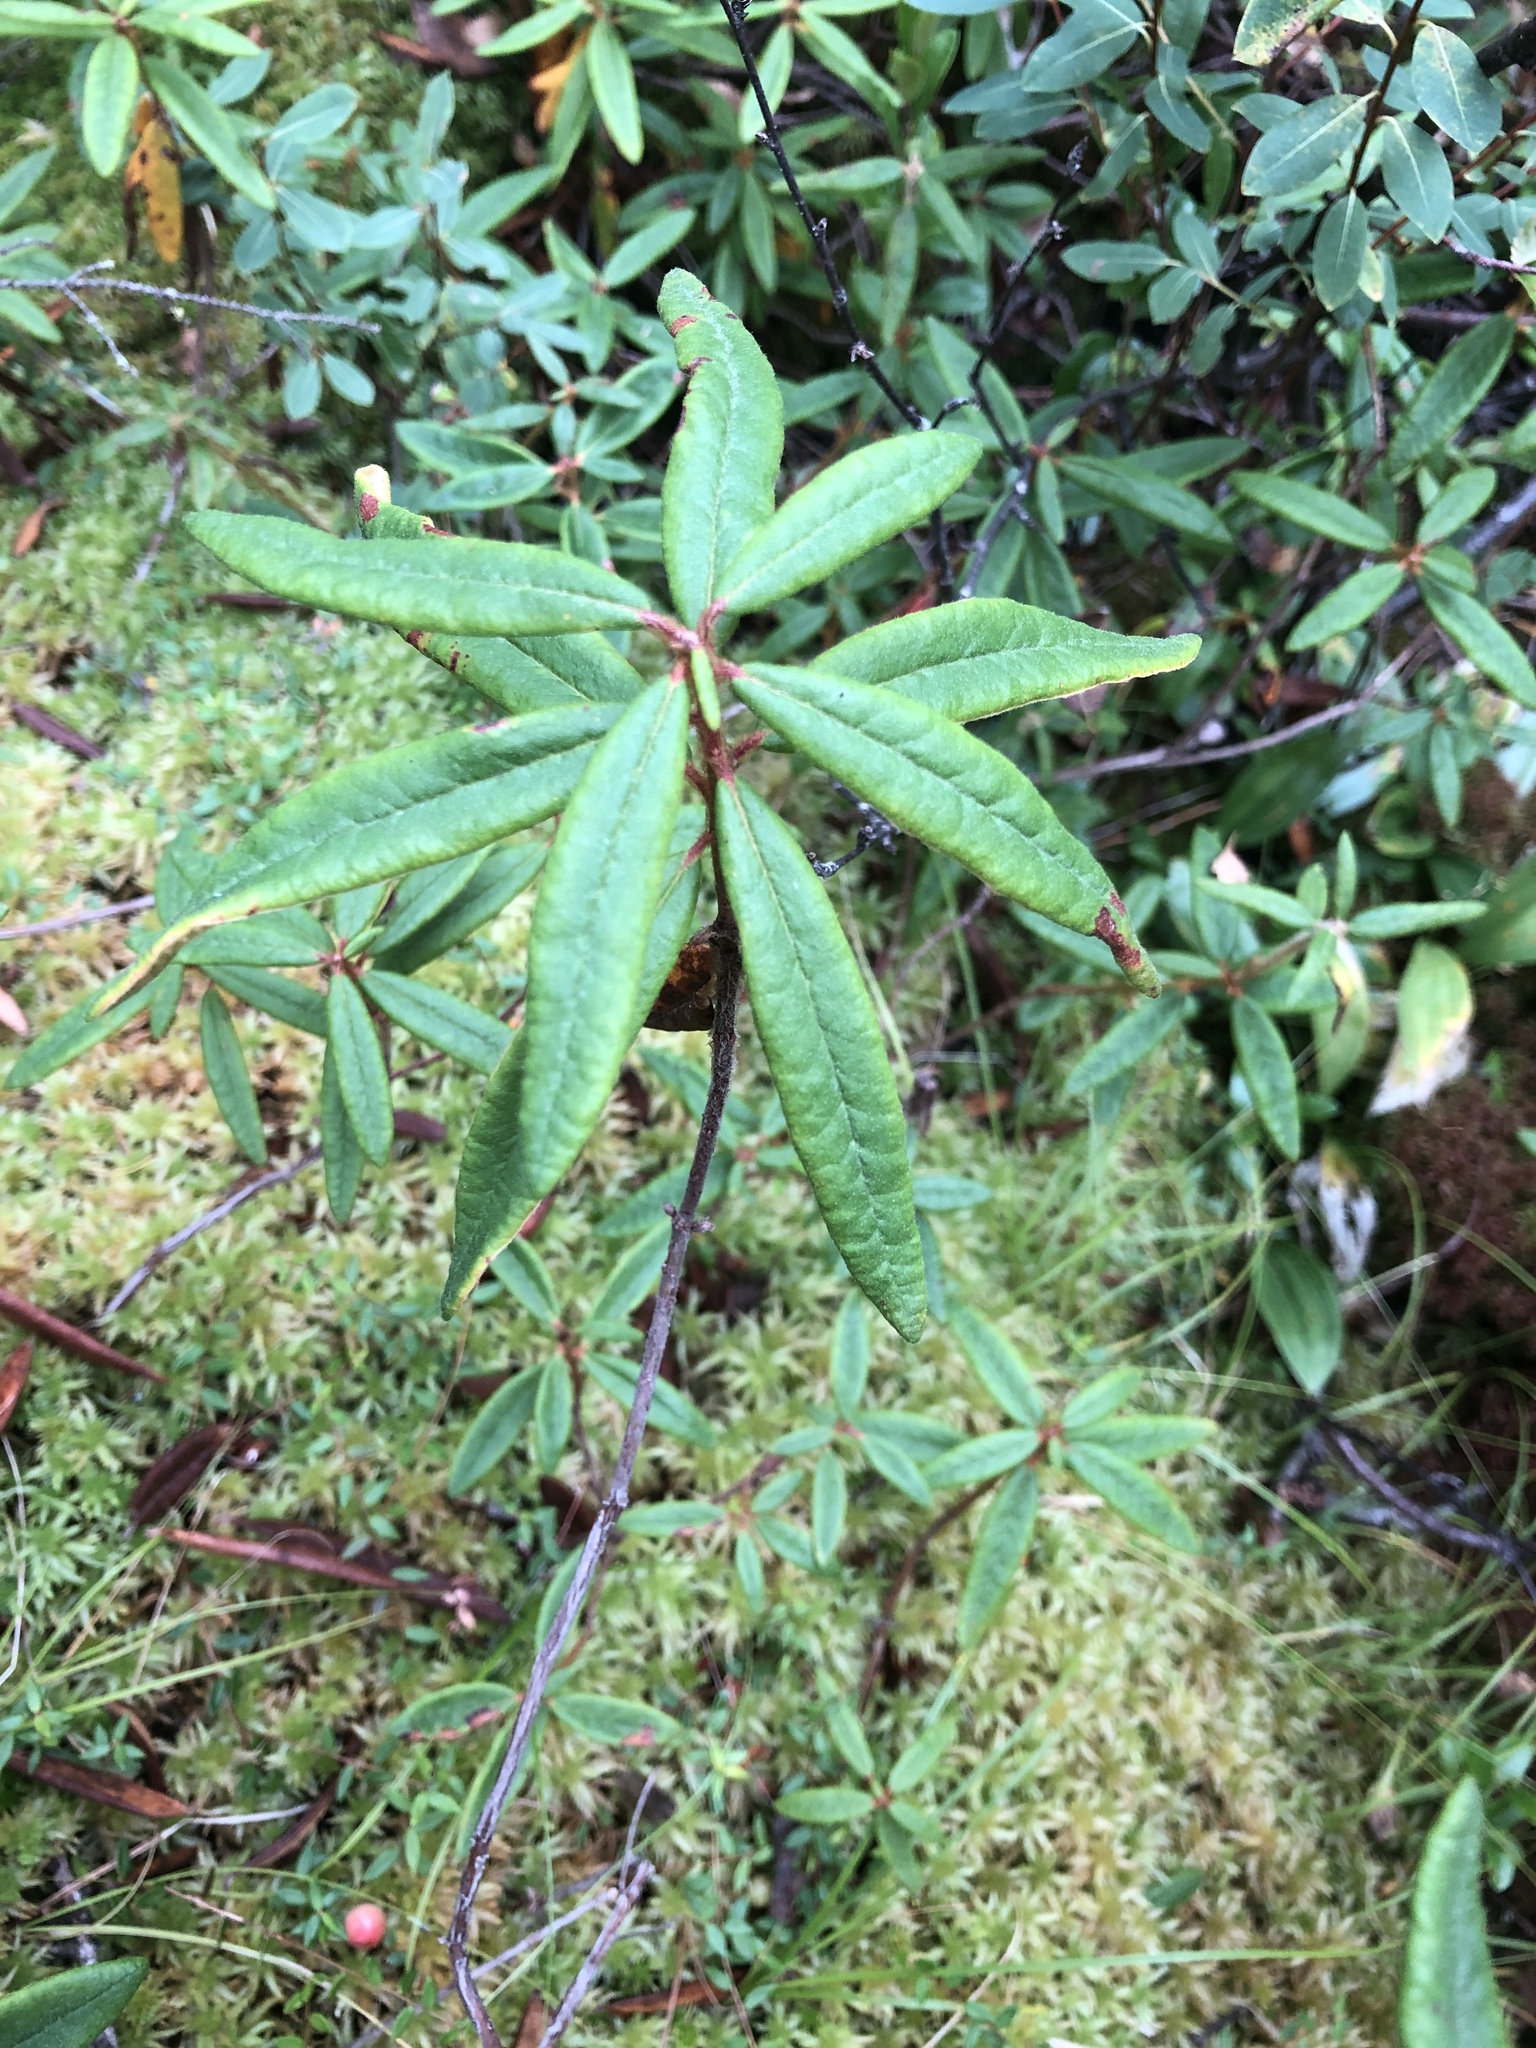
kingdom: Plantae
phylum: Tracheophyta
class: Magnoliopsida
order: Ericales
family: Ericaceae
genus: Rhododendron
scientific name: Rhododendron groenlandicum
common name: Bog labrador tea
